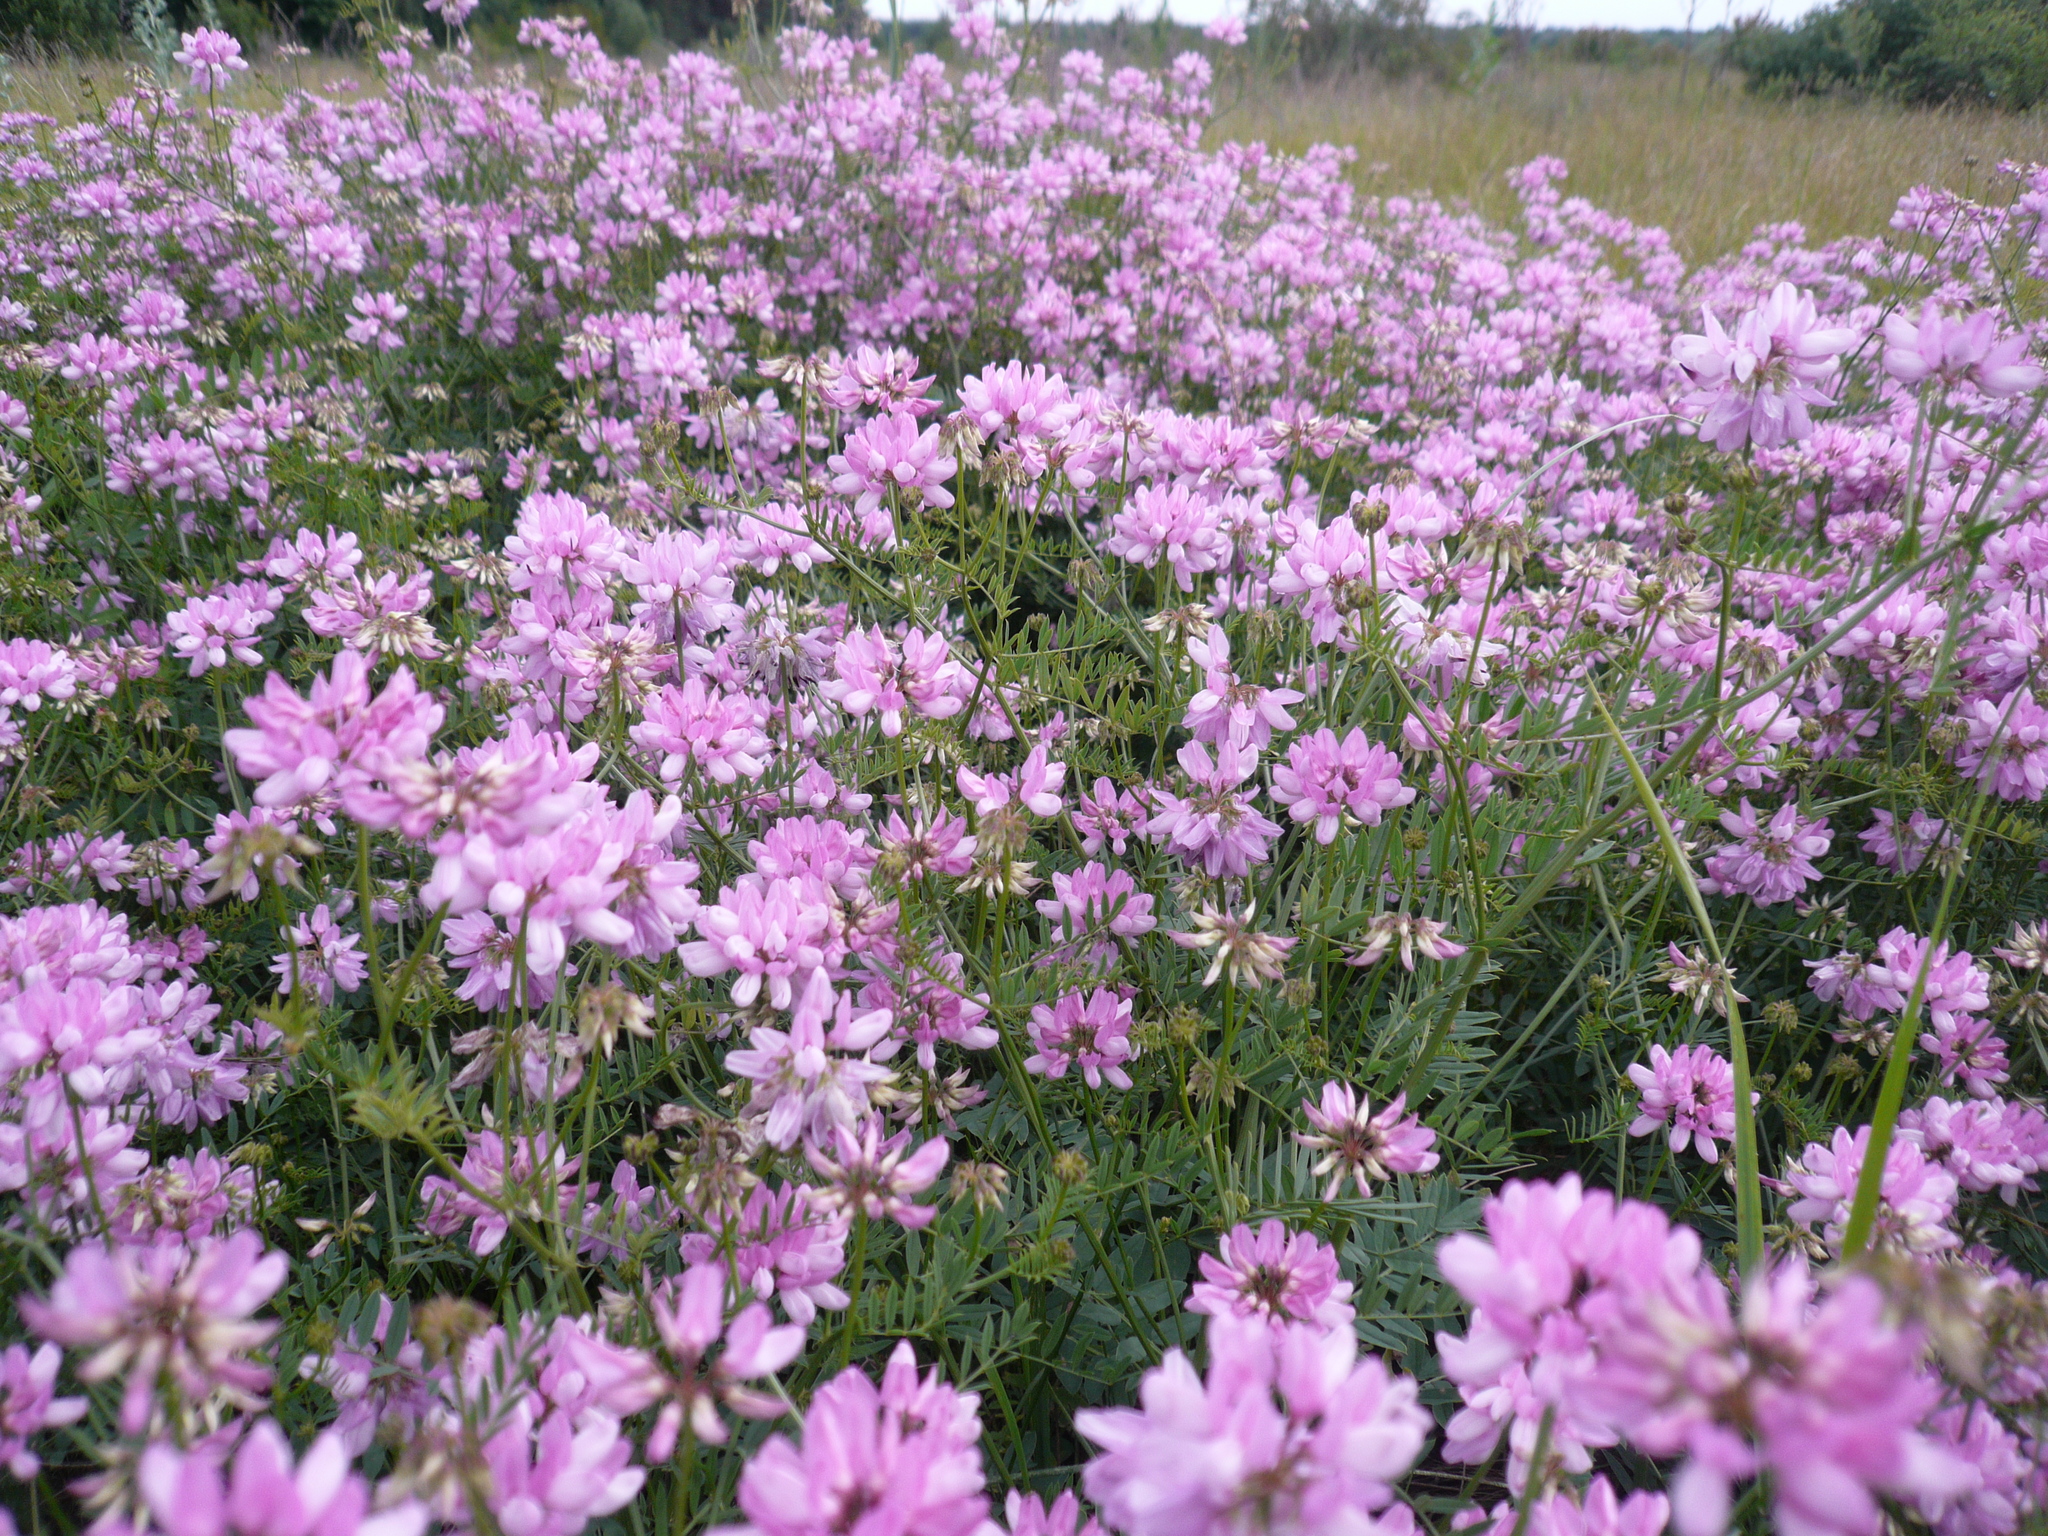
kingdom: Plantae
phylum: Tracheophyta
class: Magnoliopsida
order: Fabales
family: Fabaceae
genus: Coronilla
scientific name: Coronilla varia
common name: Crownvetch
